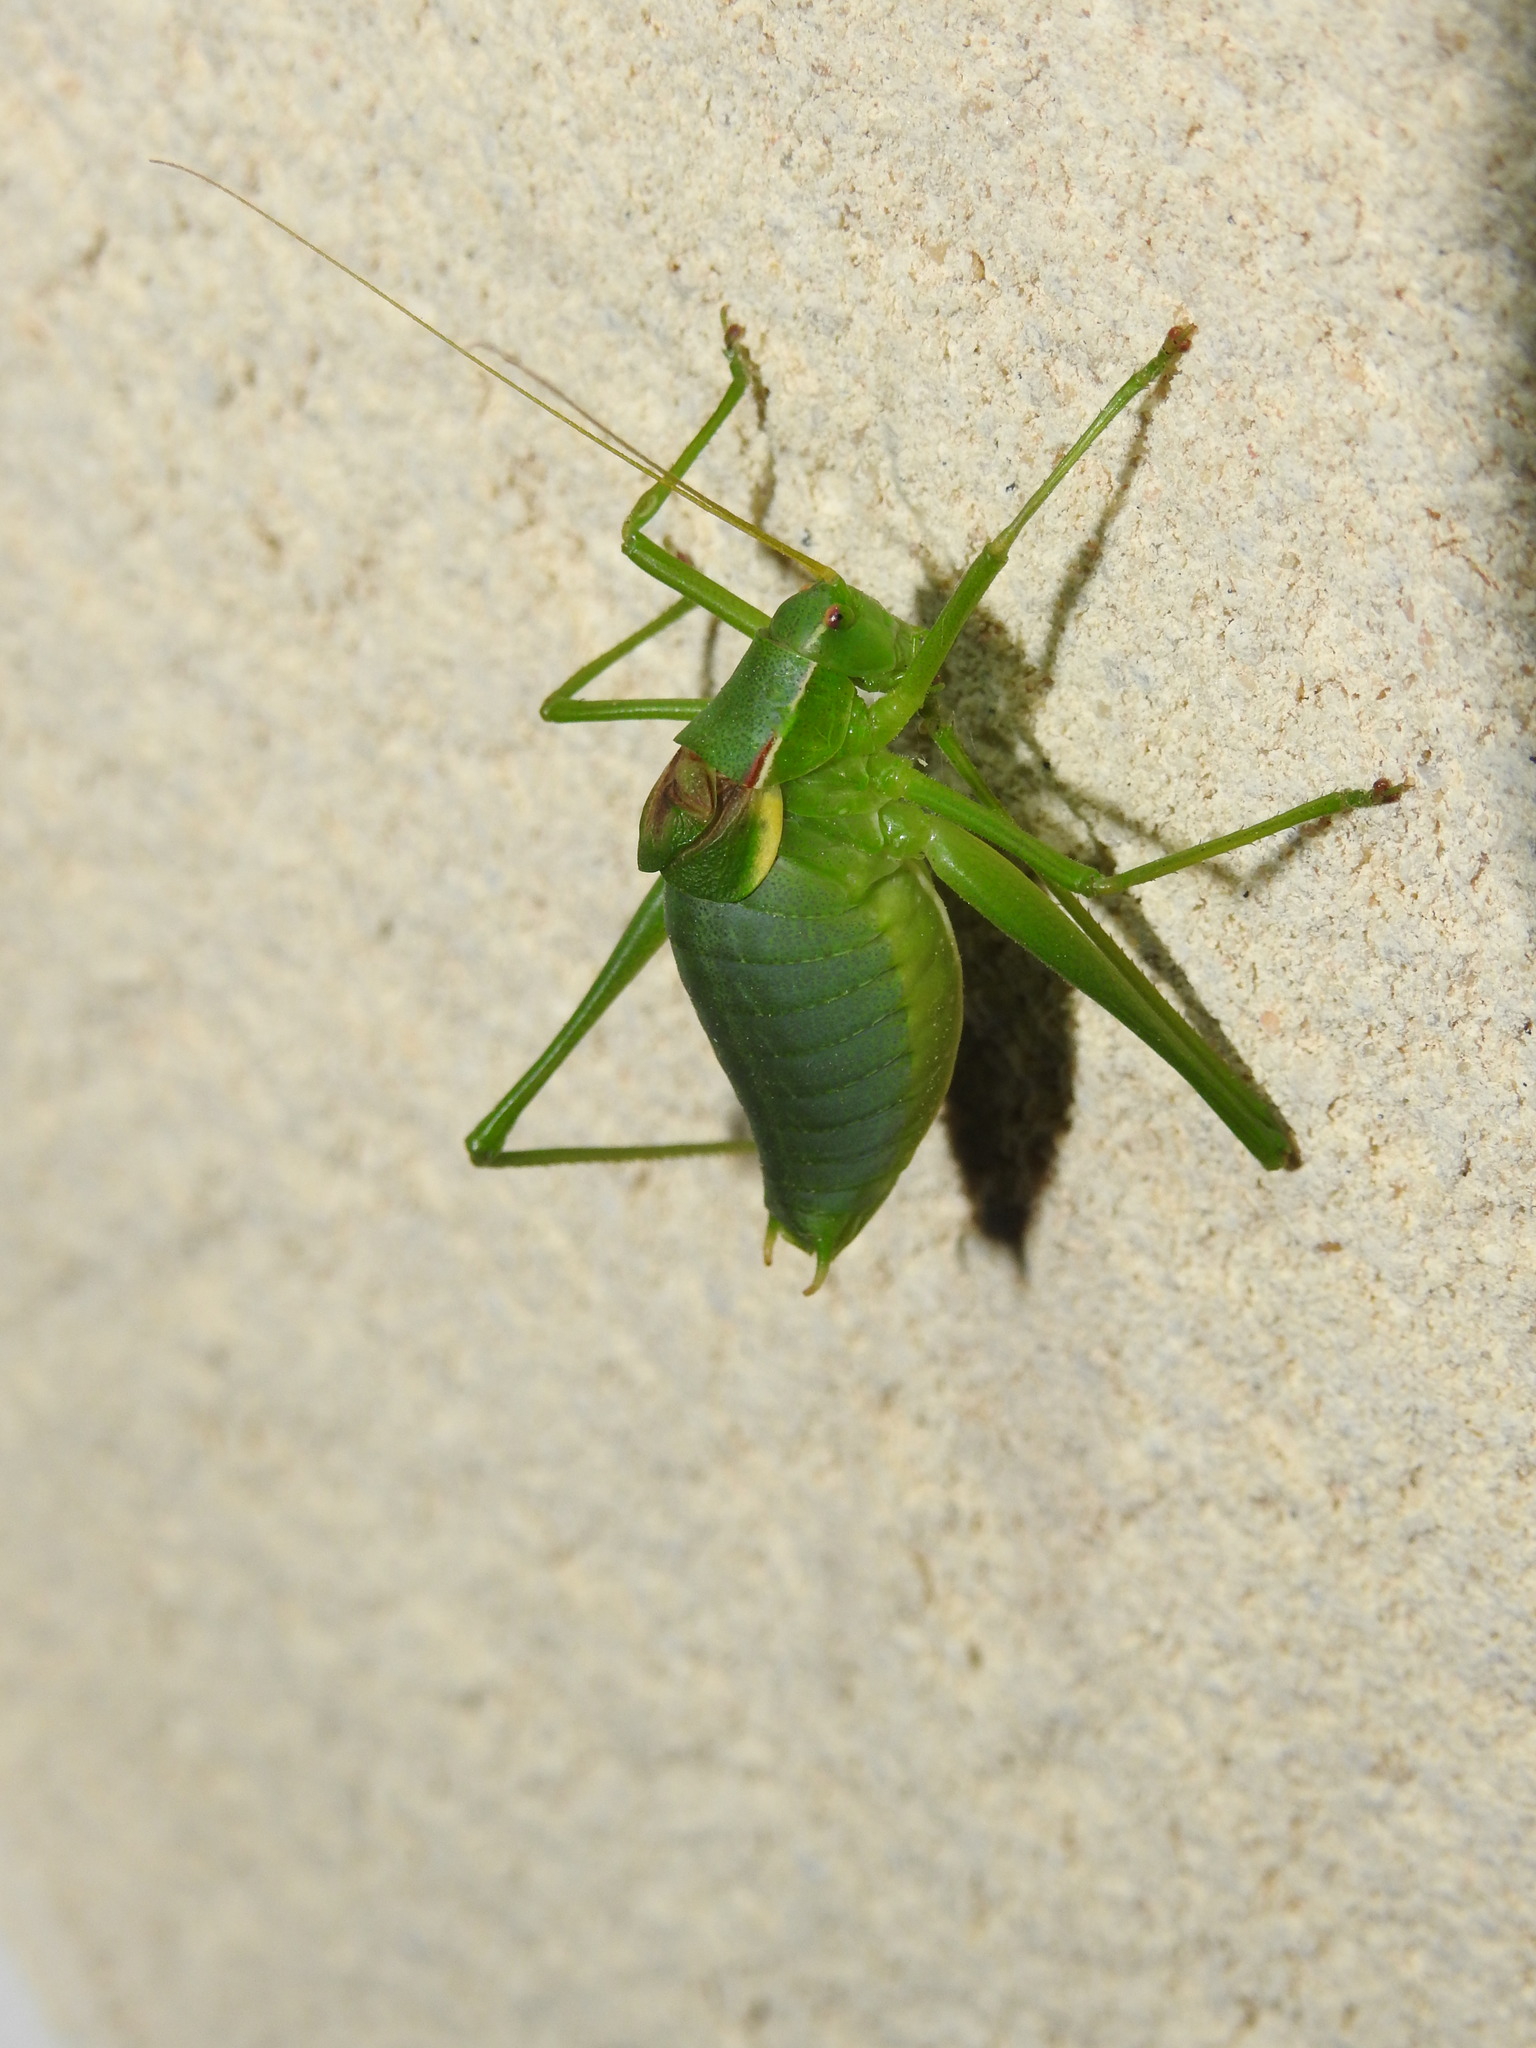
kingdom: Animalia
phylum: Arthropoda
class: Insecta
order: Orthoptera
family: Tettigoniidae
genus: Isophya
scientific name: Isophya pyrenaea
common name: Pyrenean plump bush-cricket
